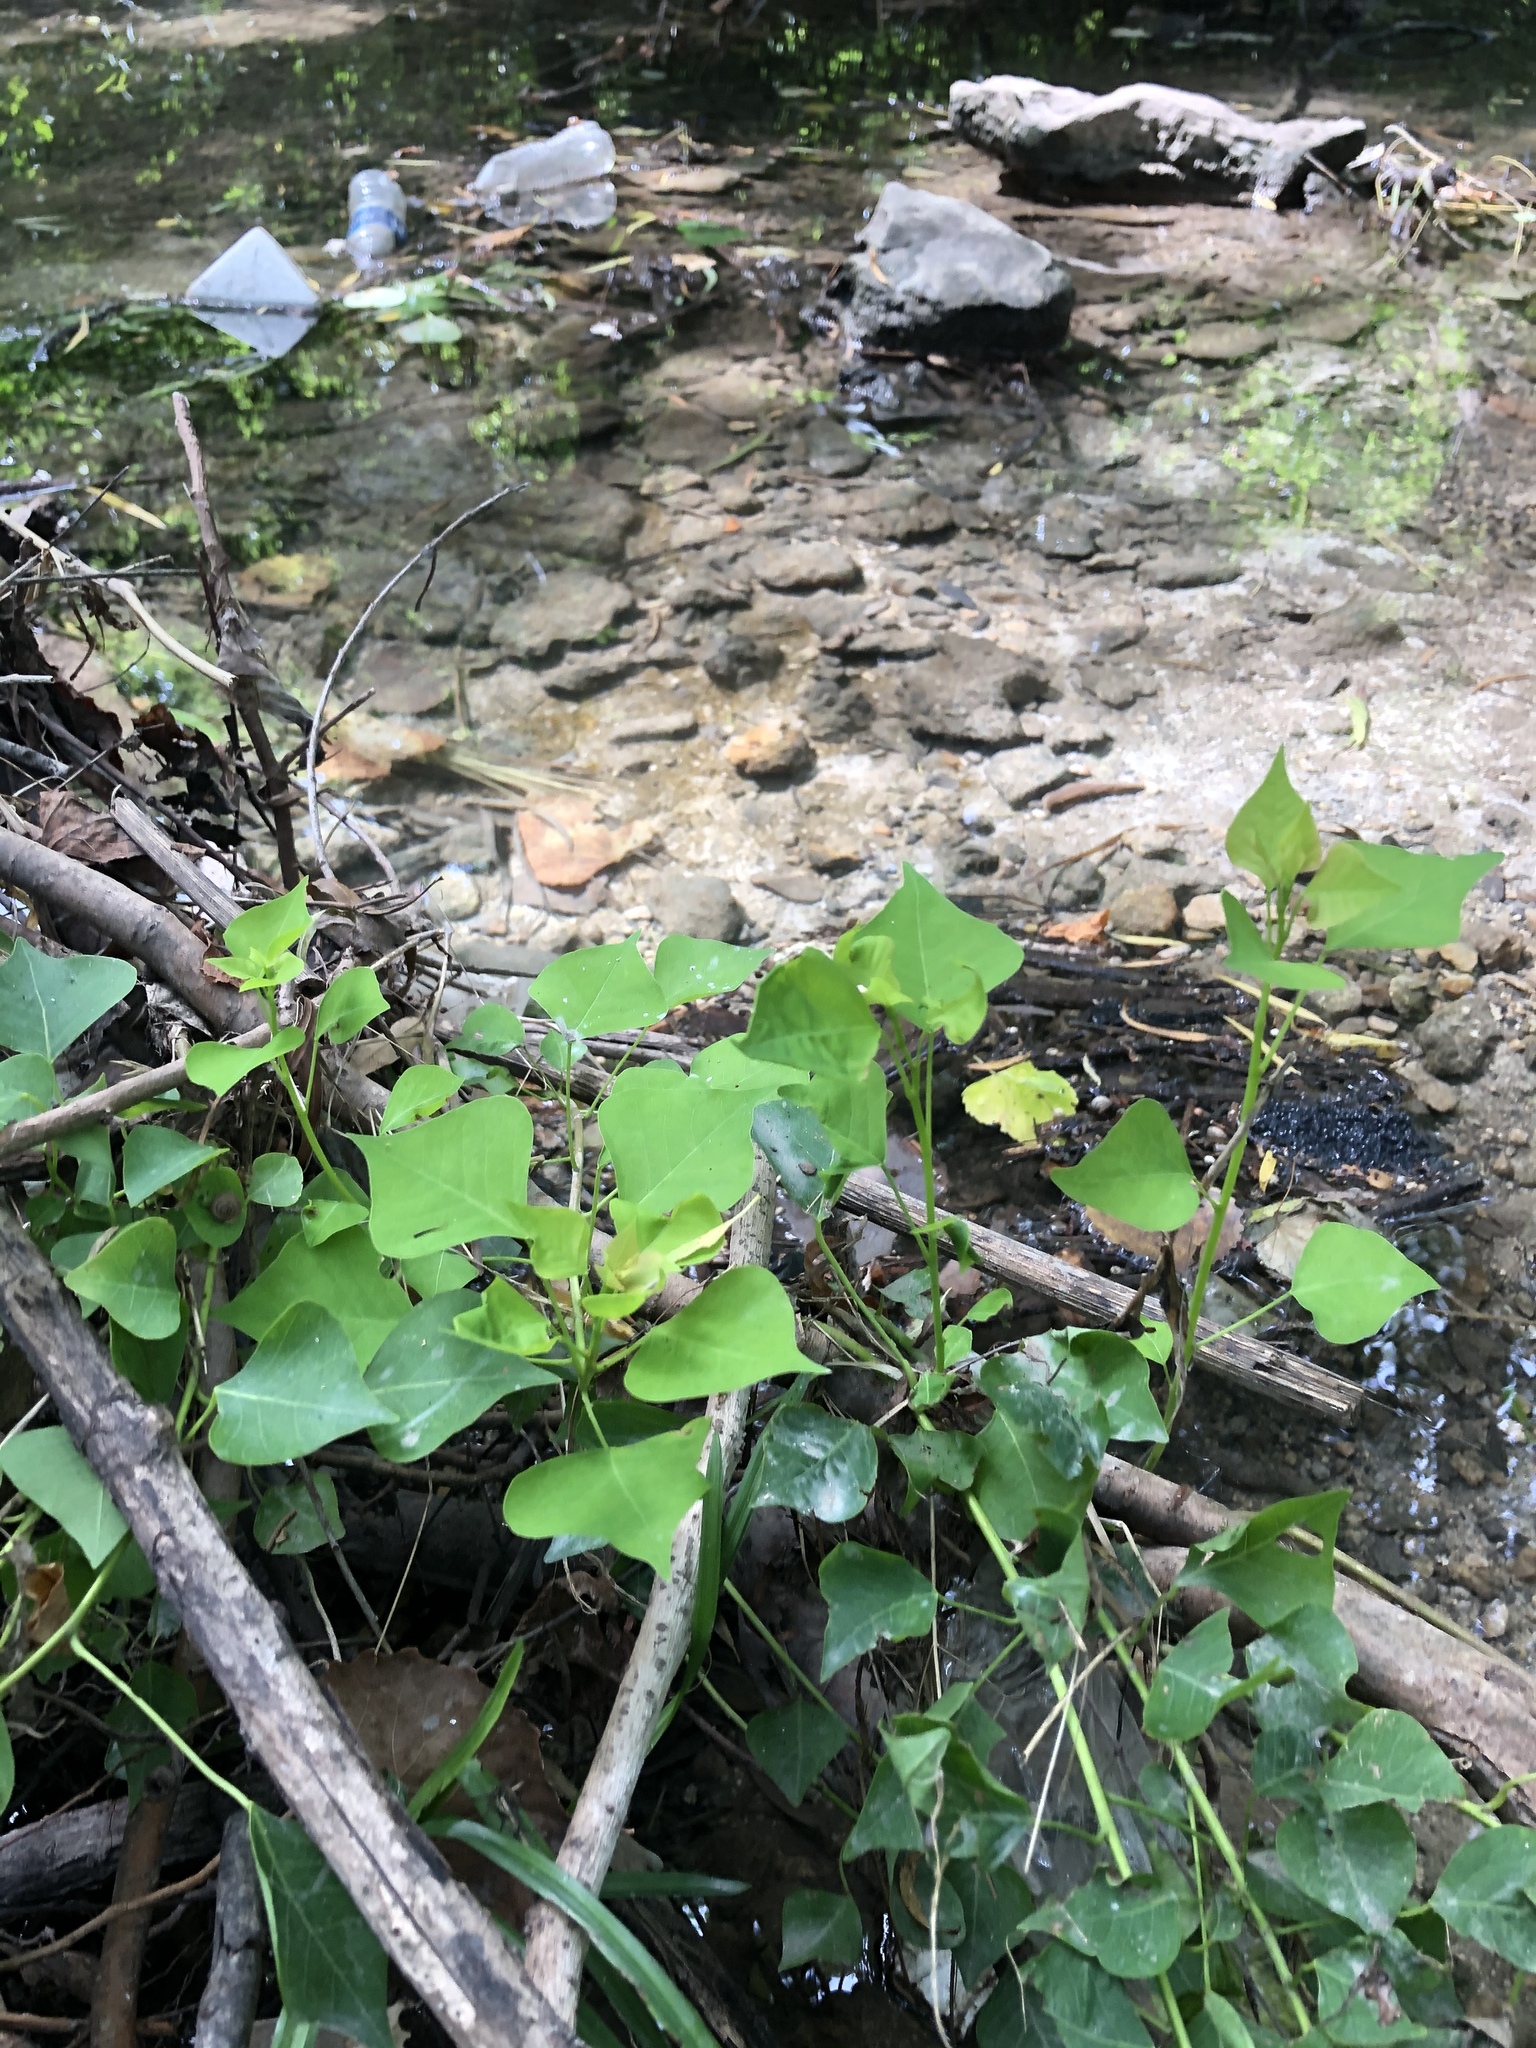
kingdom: Plantae
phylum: Tracheophyta
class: Magnoliopsida
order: Malpighiales
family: Euphorbiaceae
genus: Triadica
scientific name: Triadica sebifera
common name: Chinese tallow
